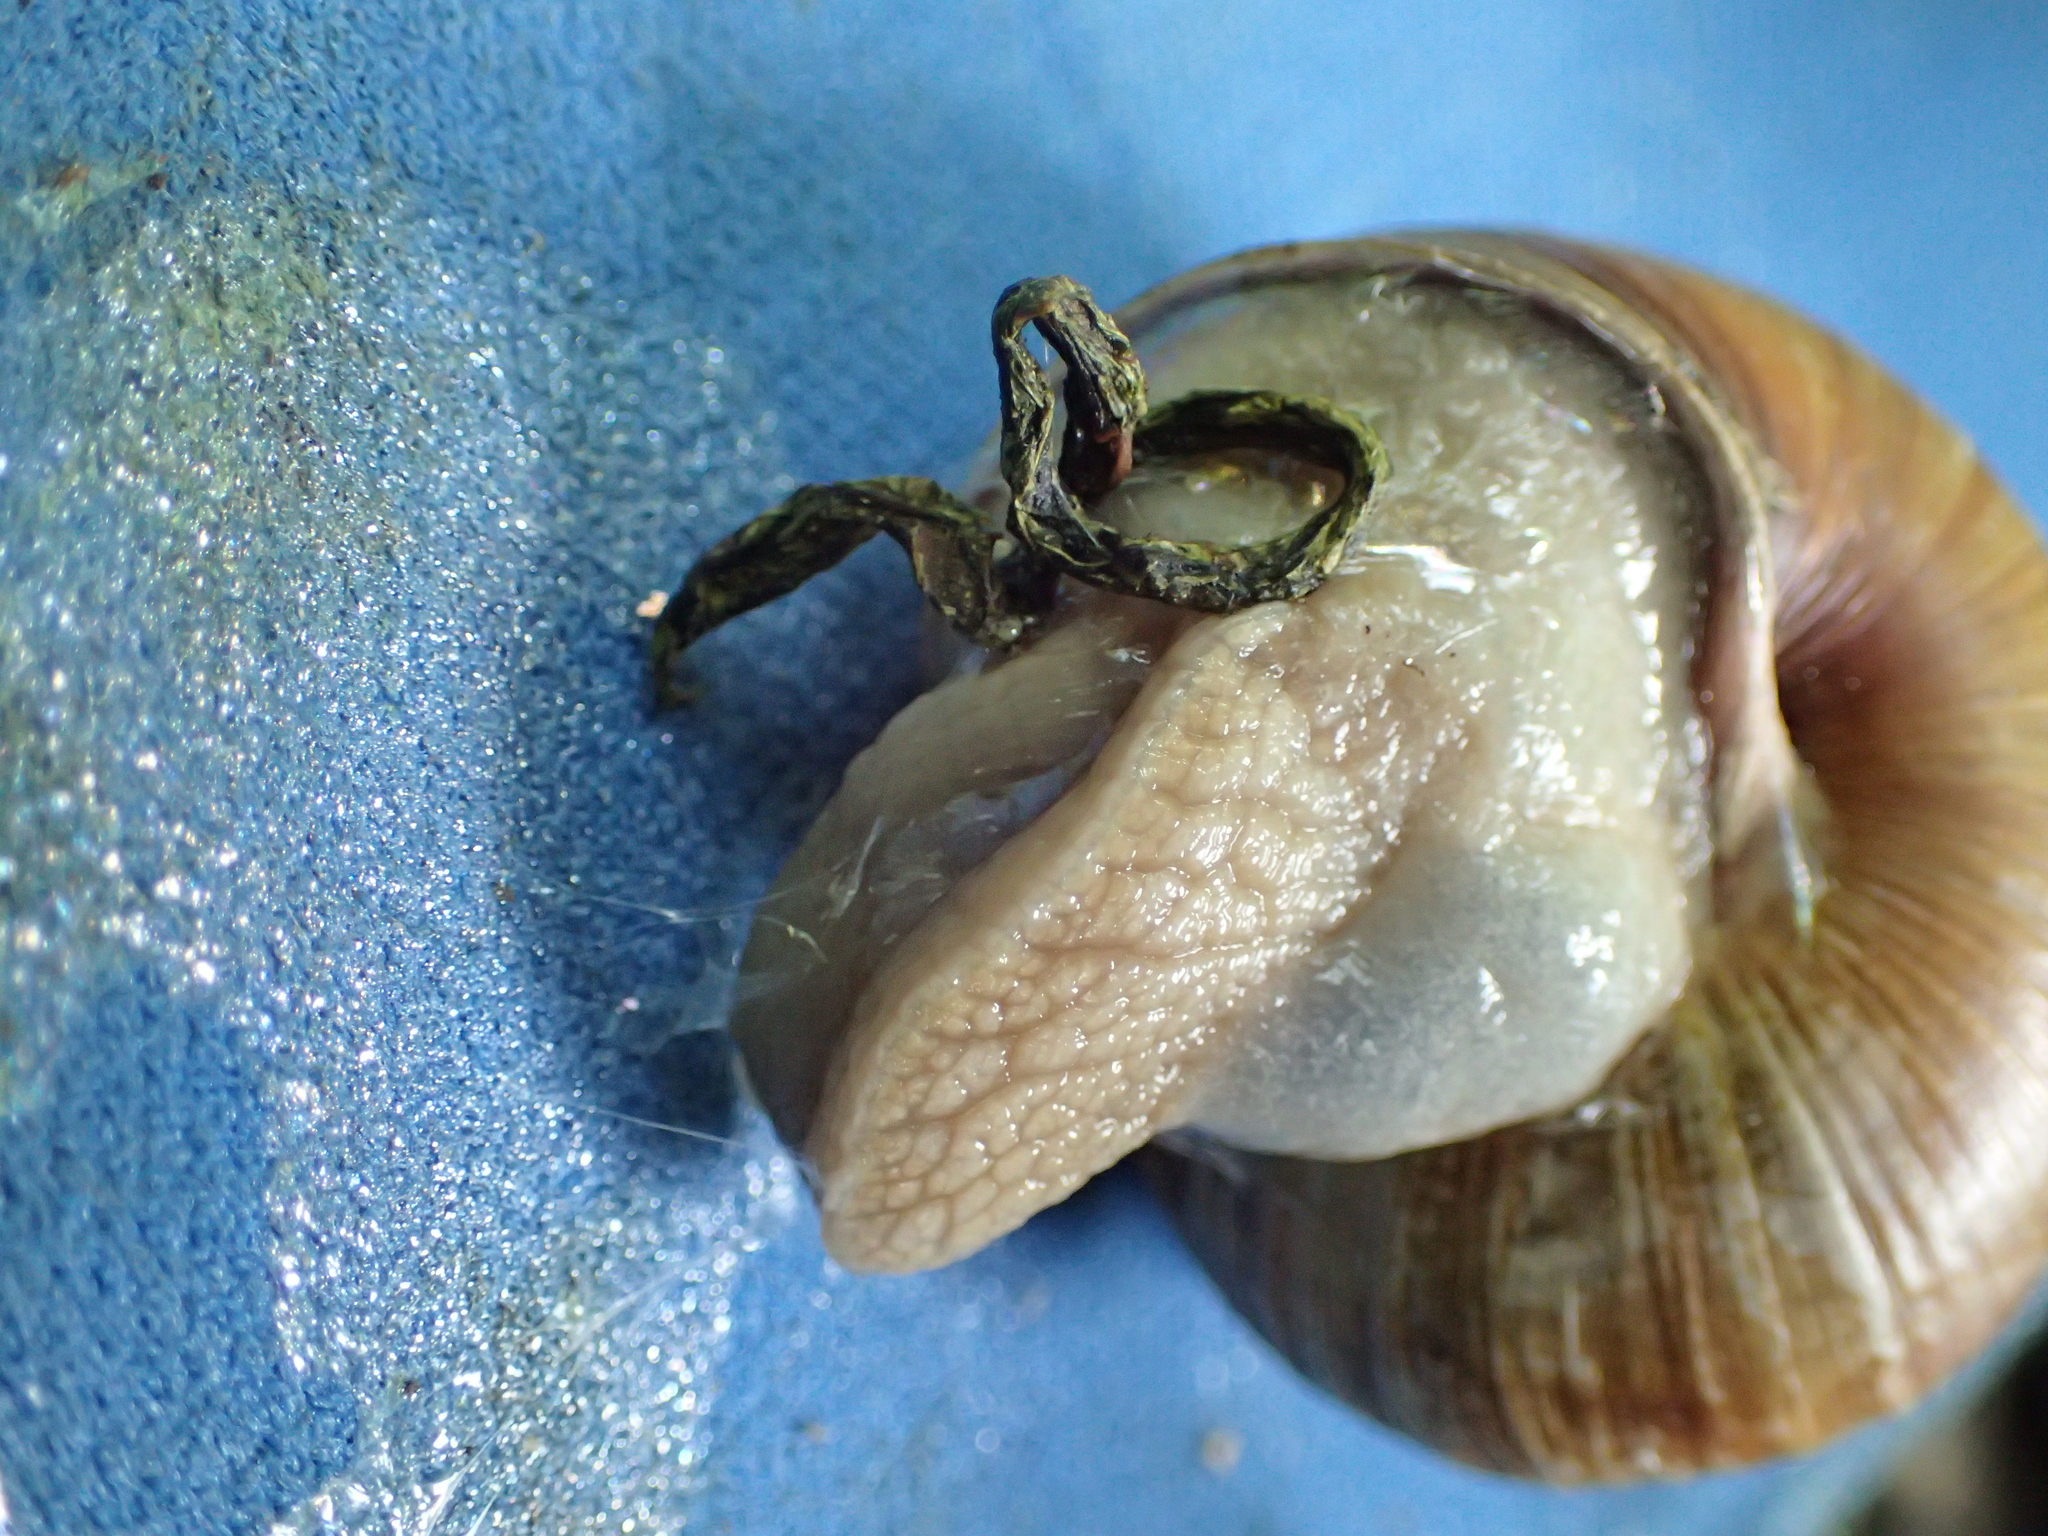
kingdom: Animalia
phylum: Mollusca
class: Gastropoda
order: Stylommatophora
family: Helicidae
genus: Helix
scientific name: Helix pomatia
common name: Roman snail
